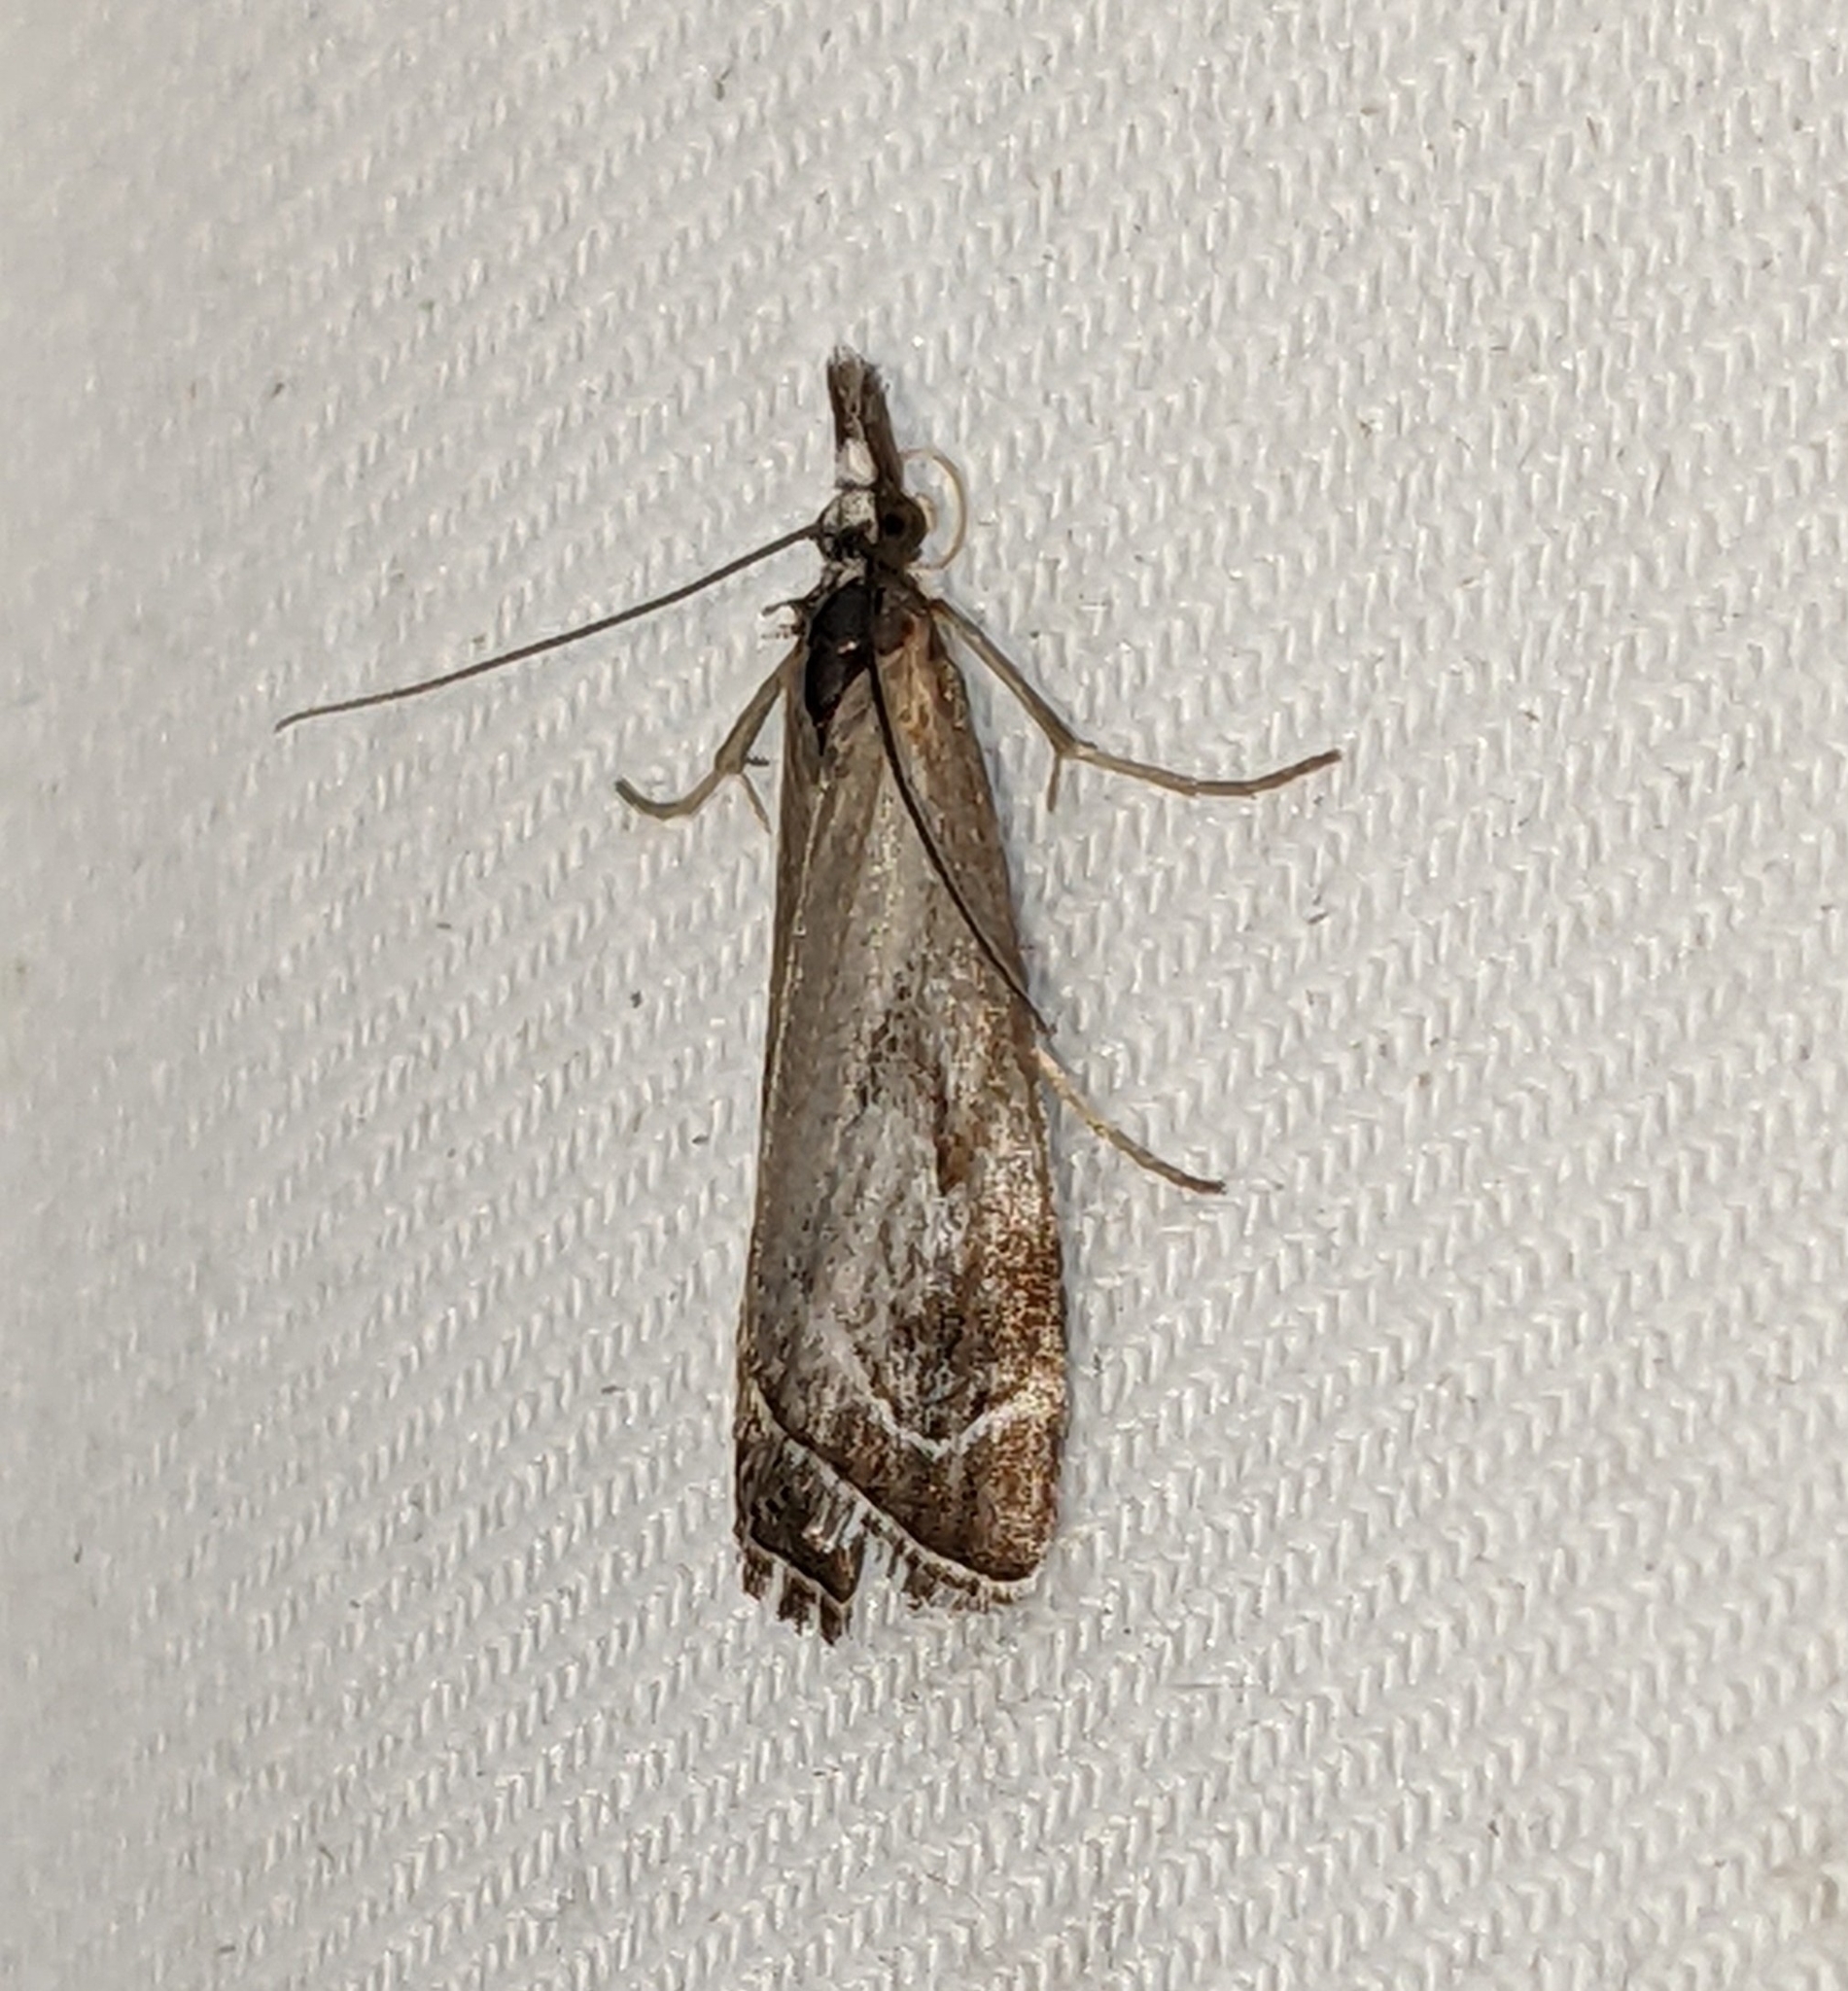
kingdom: Animalia
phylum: Arthropoda
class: Insecta
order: Lepidoptera
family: Crambidae
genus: Catoptria
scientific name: Catoptria oregonicus
